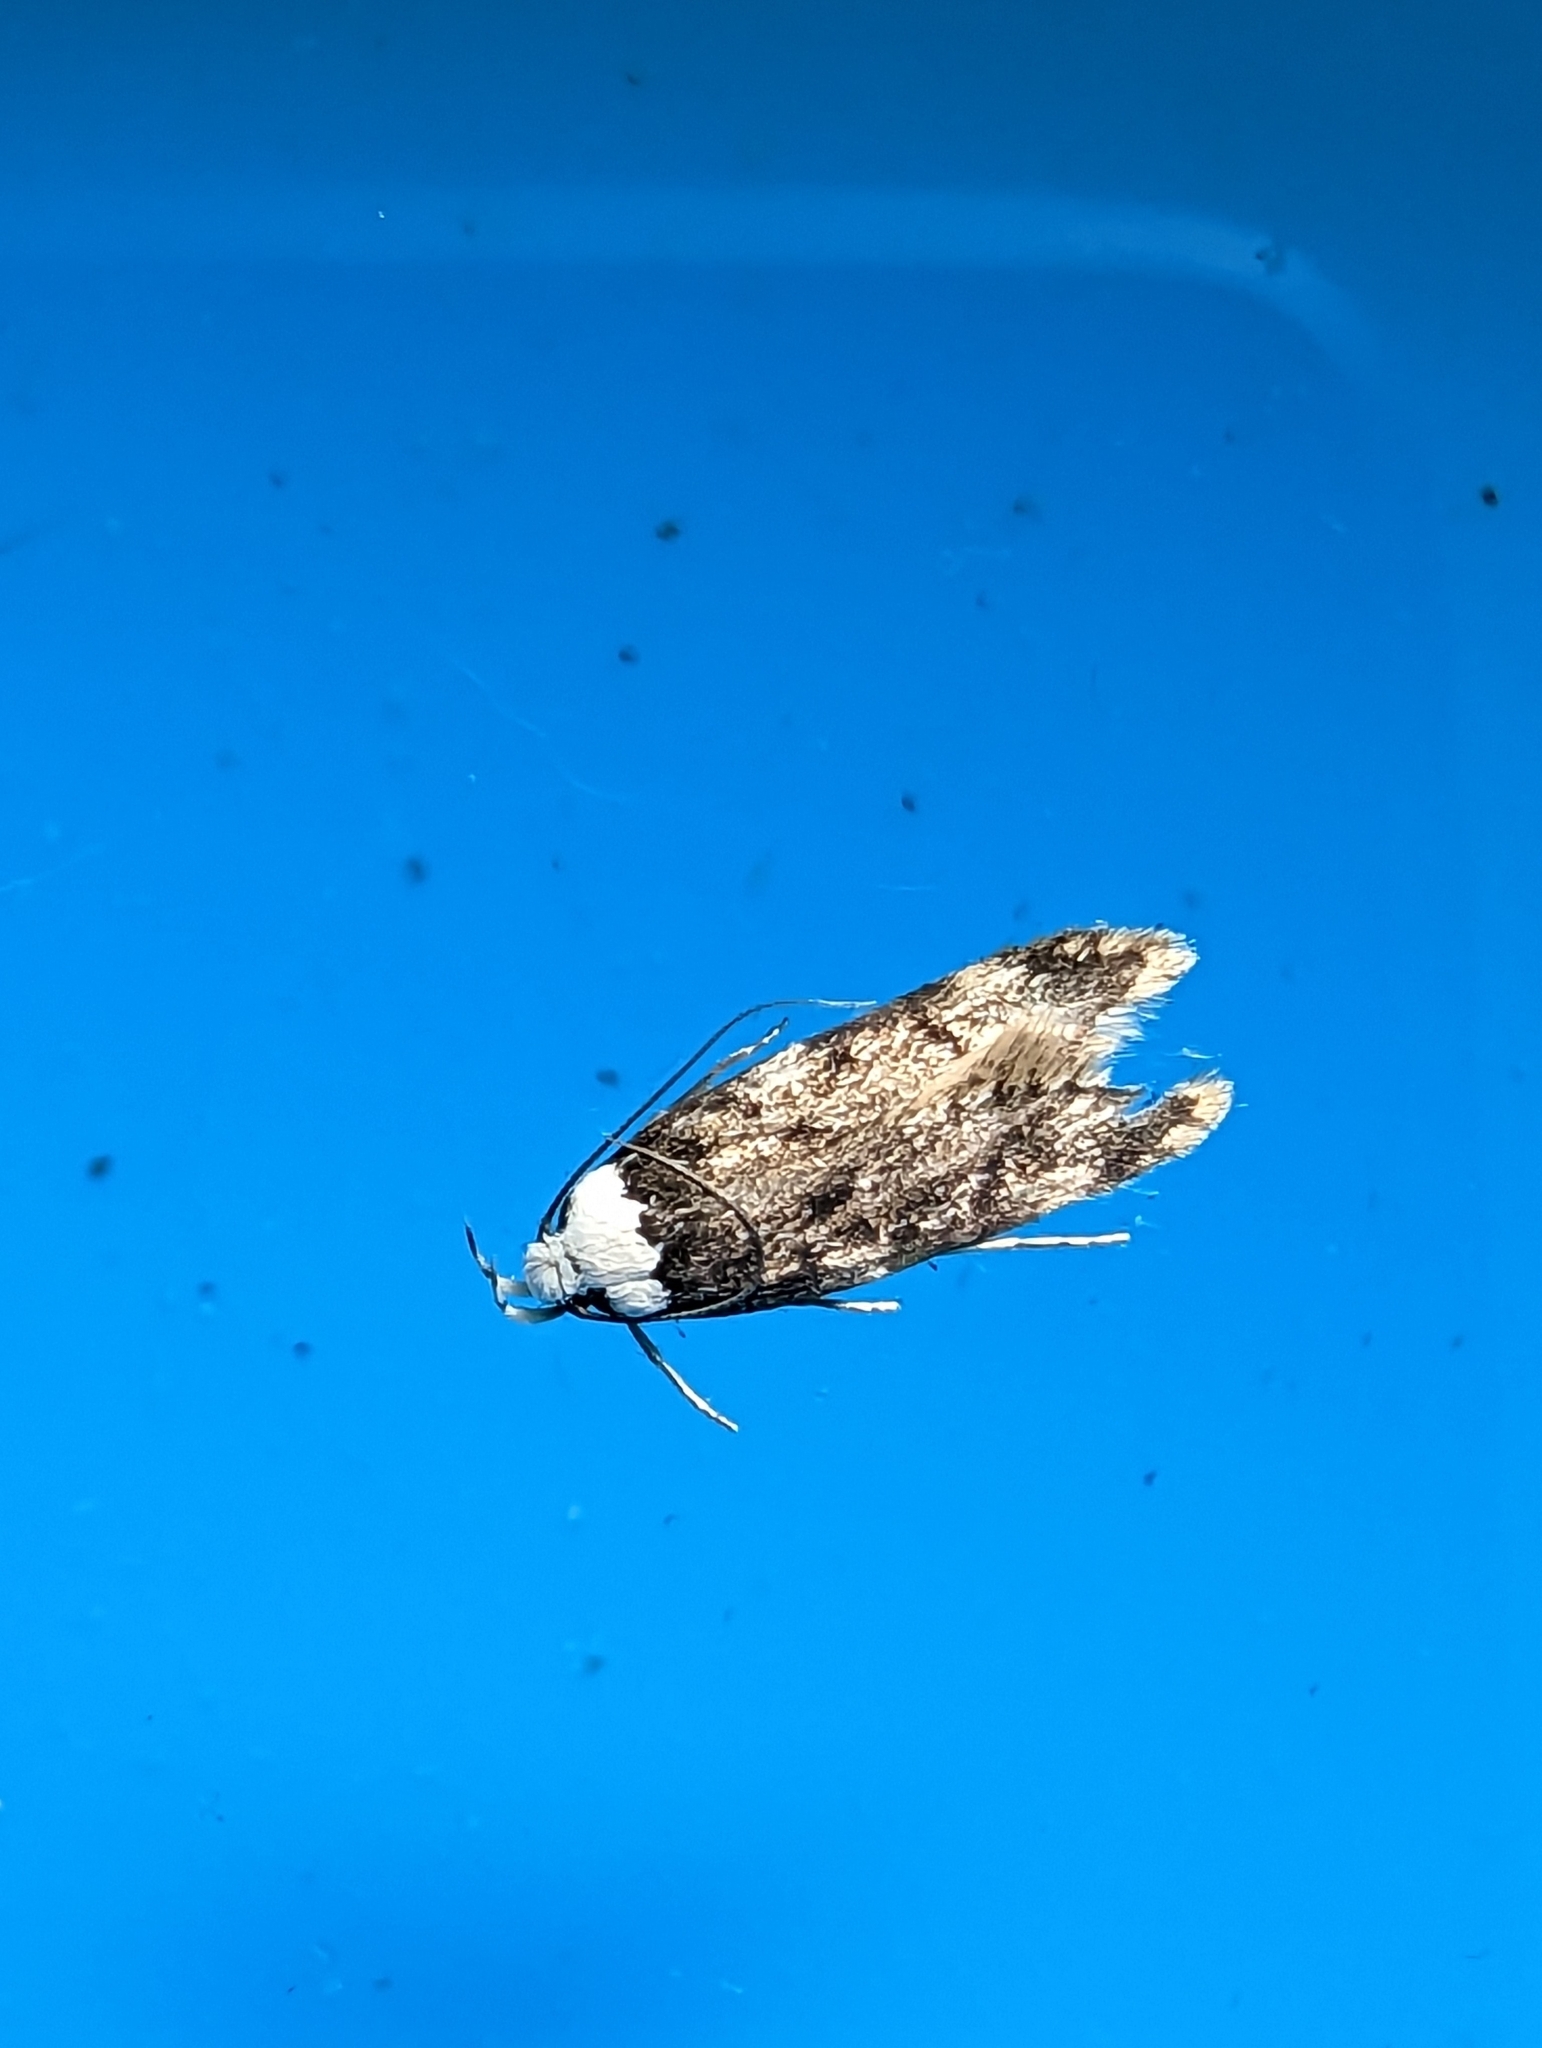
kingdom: Animalia
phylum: Arthropoda
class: Insecta
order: Lepidoptera
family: Oecophoridae
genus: Endrosis
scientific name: Endrosis sarcitrella
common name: White-shouldered house moth
